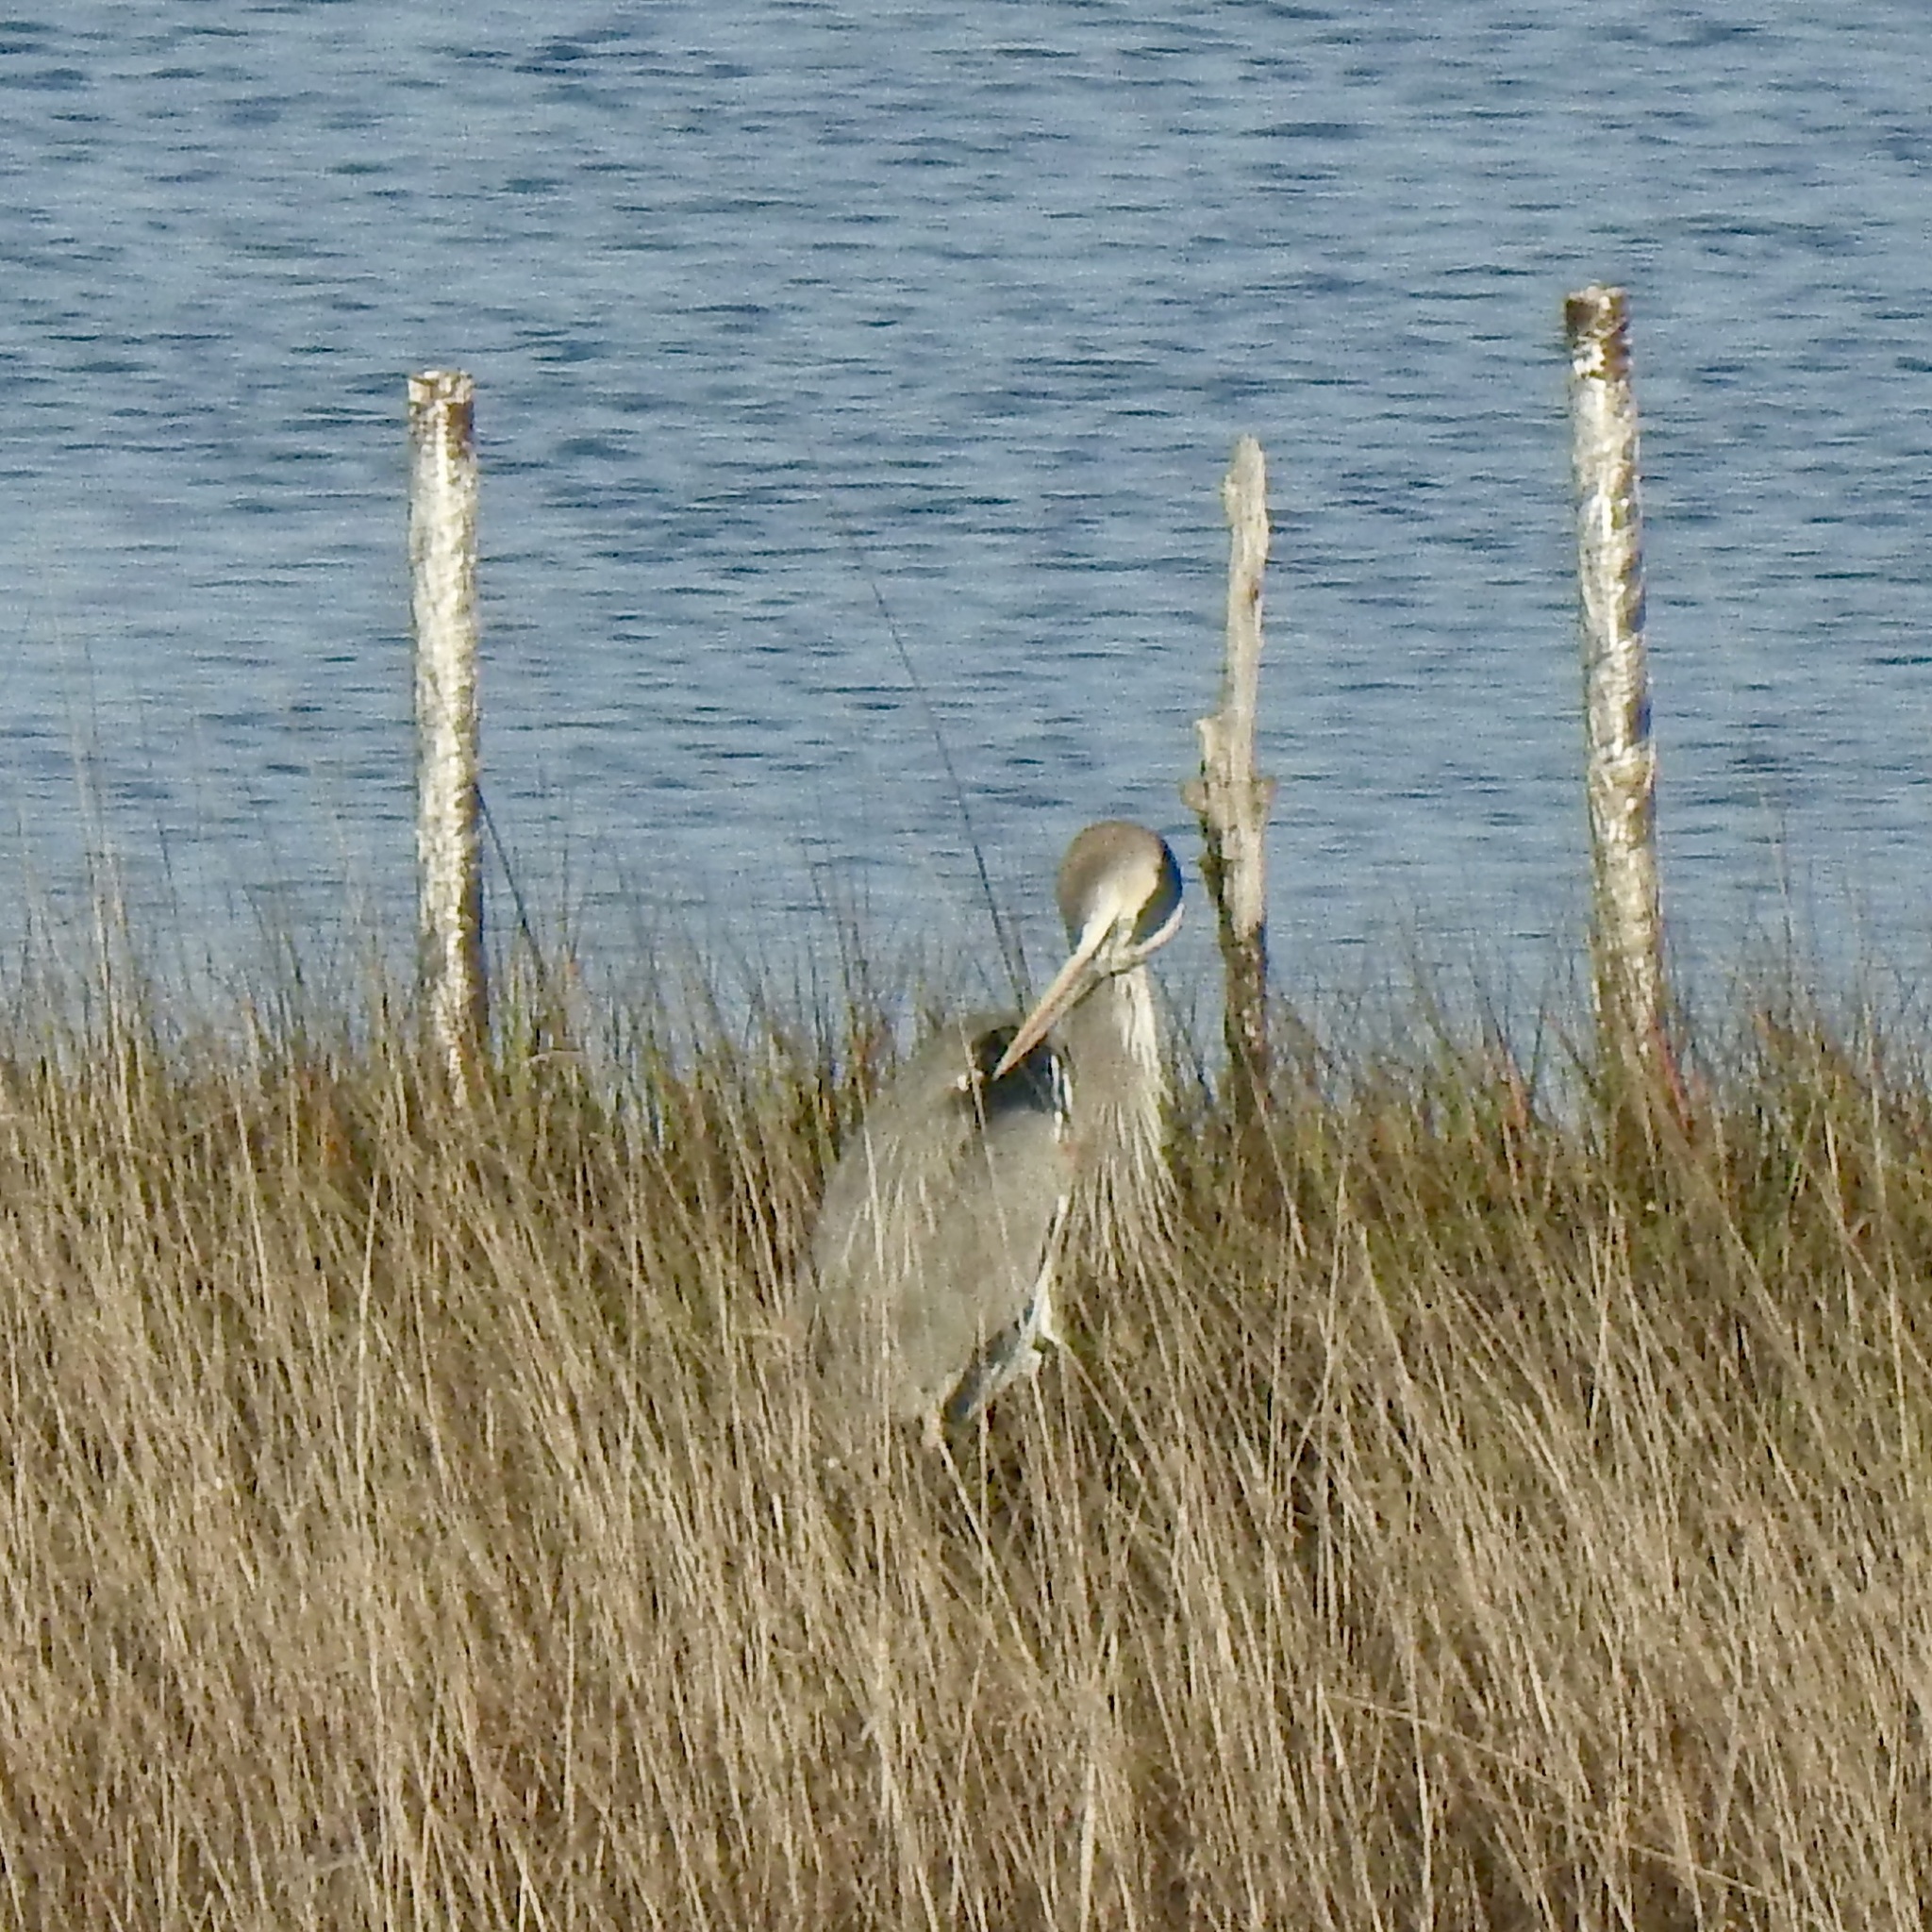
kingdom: Animalia
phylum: Chordata
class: Aves
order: Pelecaniformes
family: Ardeidae
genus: Ardea
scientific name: Ardea herodias
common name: Great blue heron
